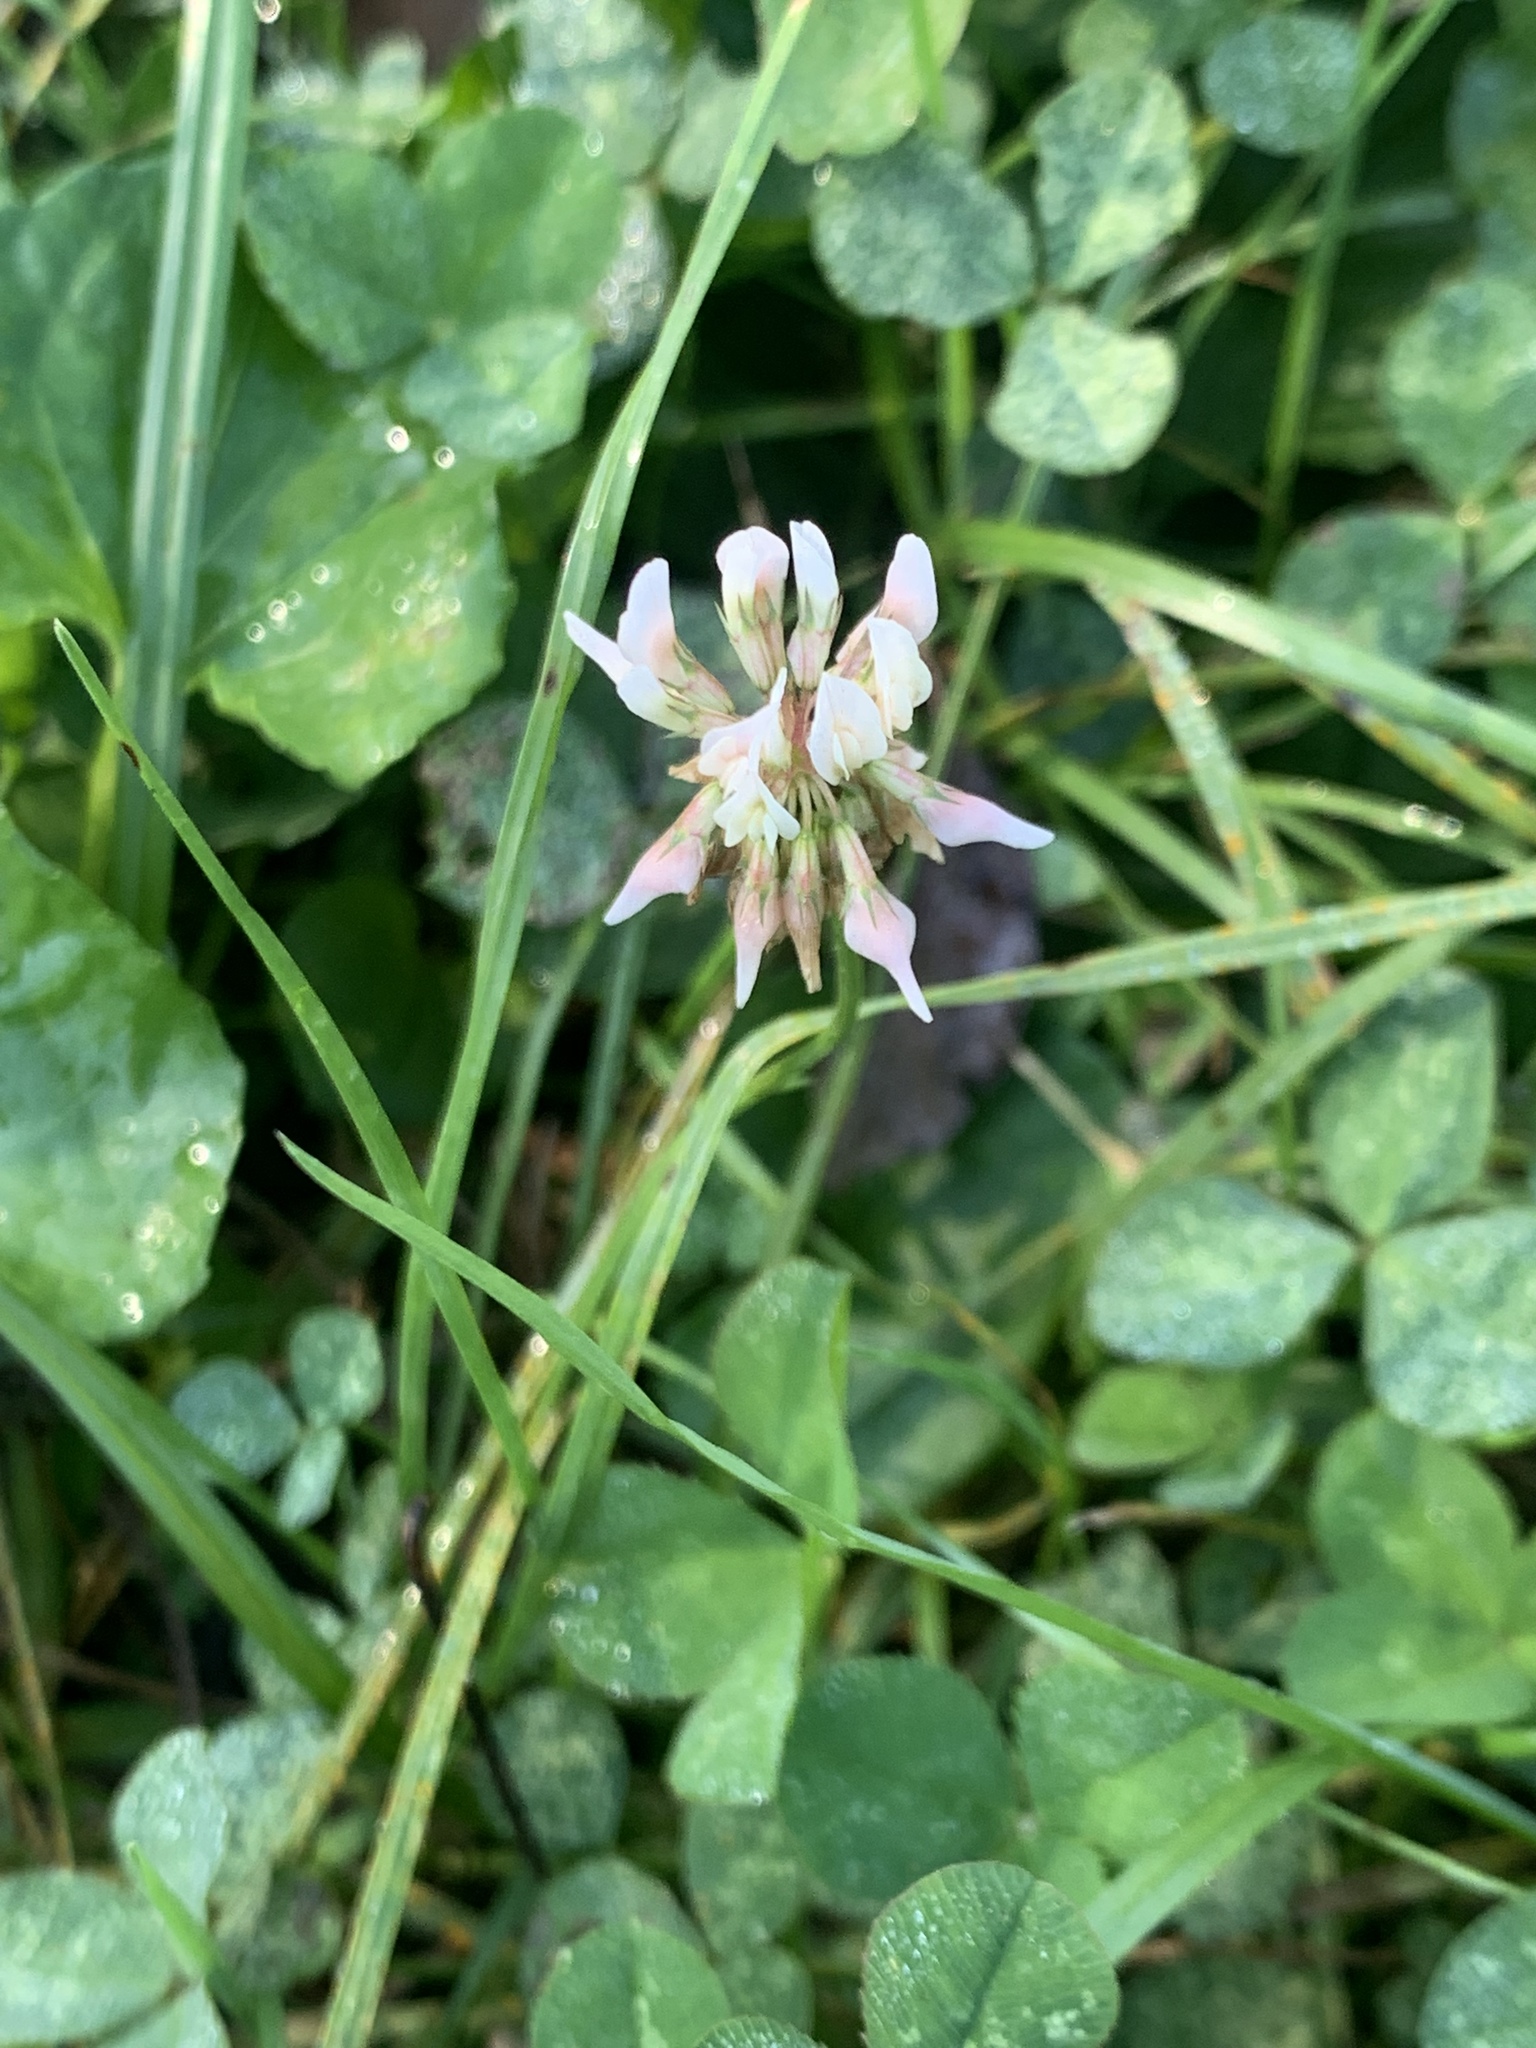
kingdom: Plantae
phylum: Tracheophyta
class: Magnoliopsida
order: Fabales
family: Fabaceae
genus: Trifolium
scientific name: Trifolium repens
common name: White clover
